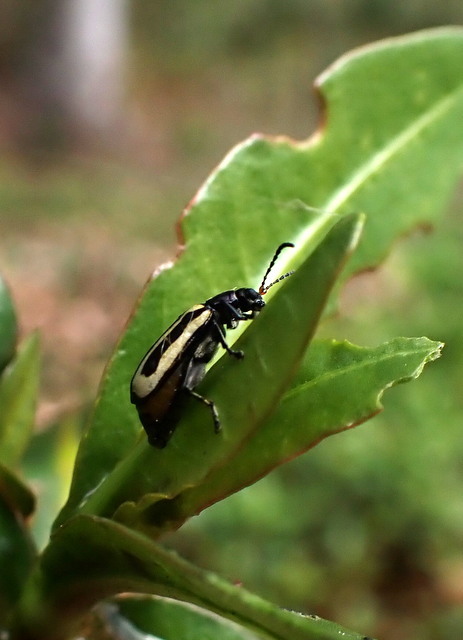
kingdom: Animalia
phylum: Arthropoda
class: Insecta
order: Coleoptera
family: Chrysomelidae
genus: Agasicles
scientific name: Agasicles hygrophila
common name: Alligatorweed flea beetle
